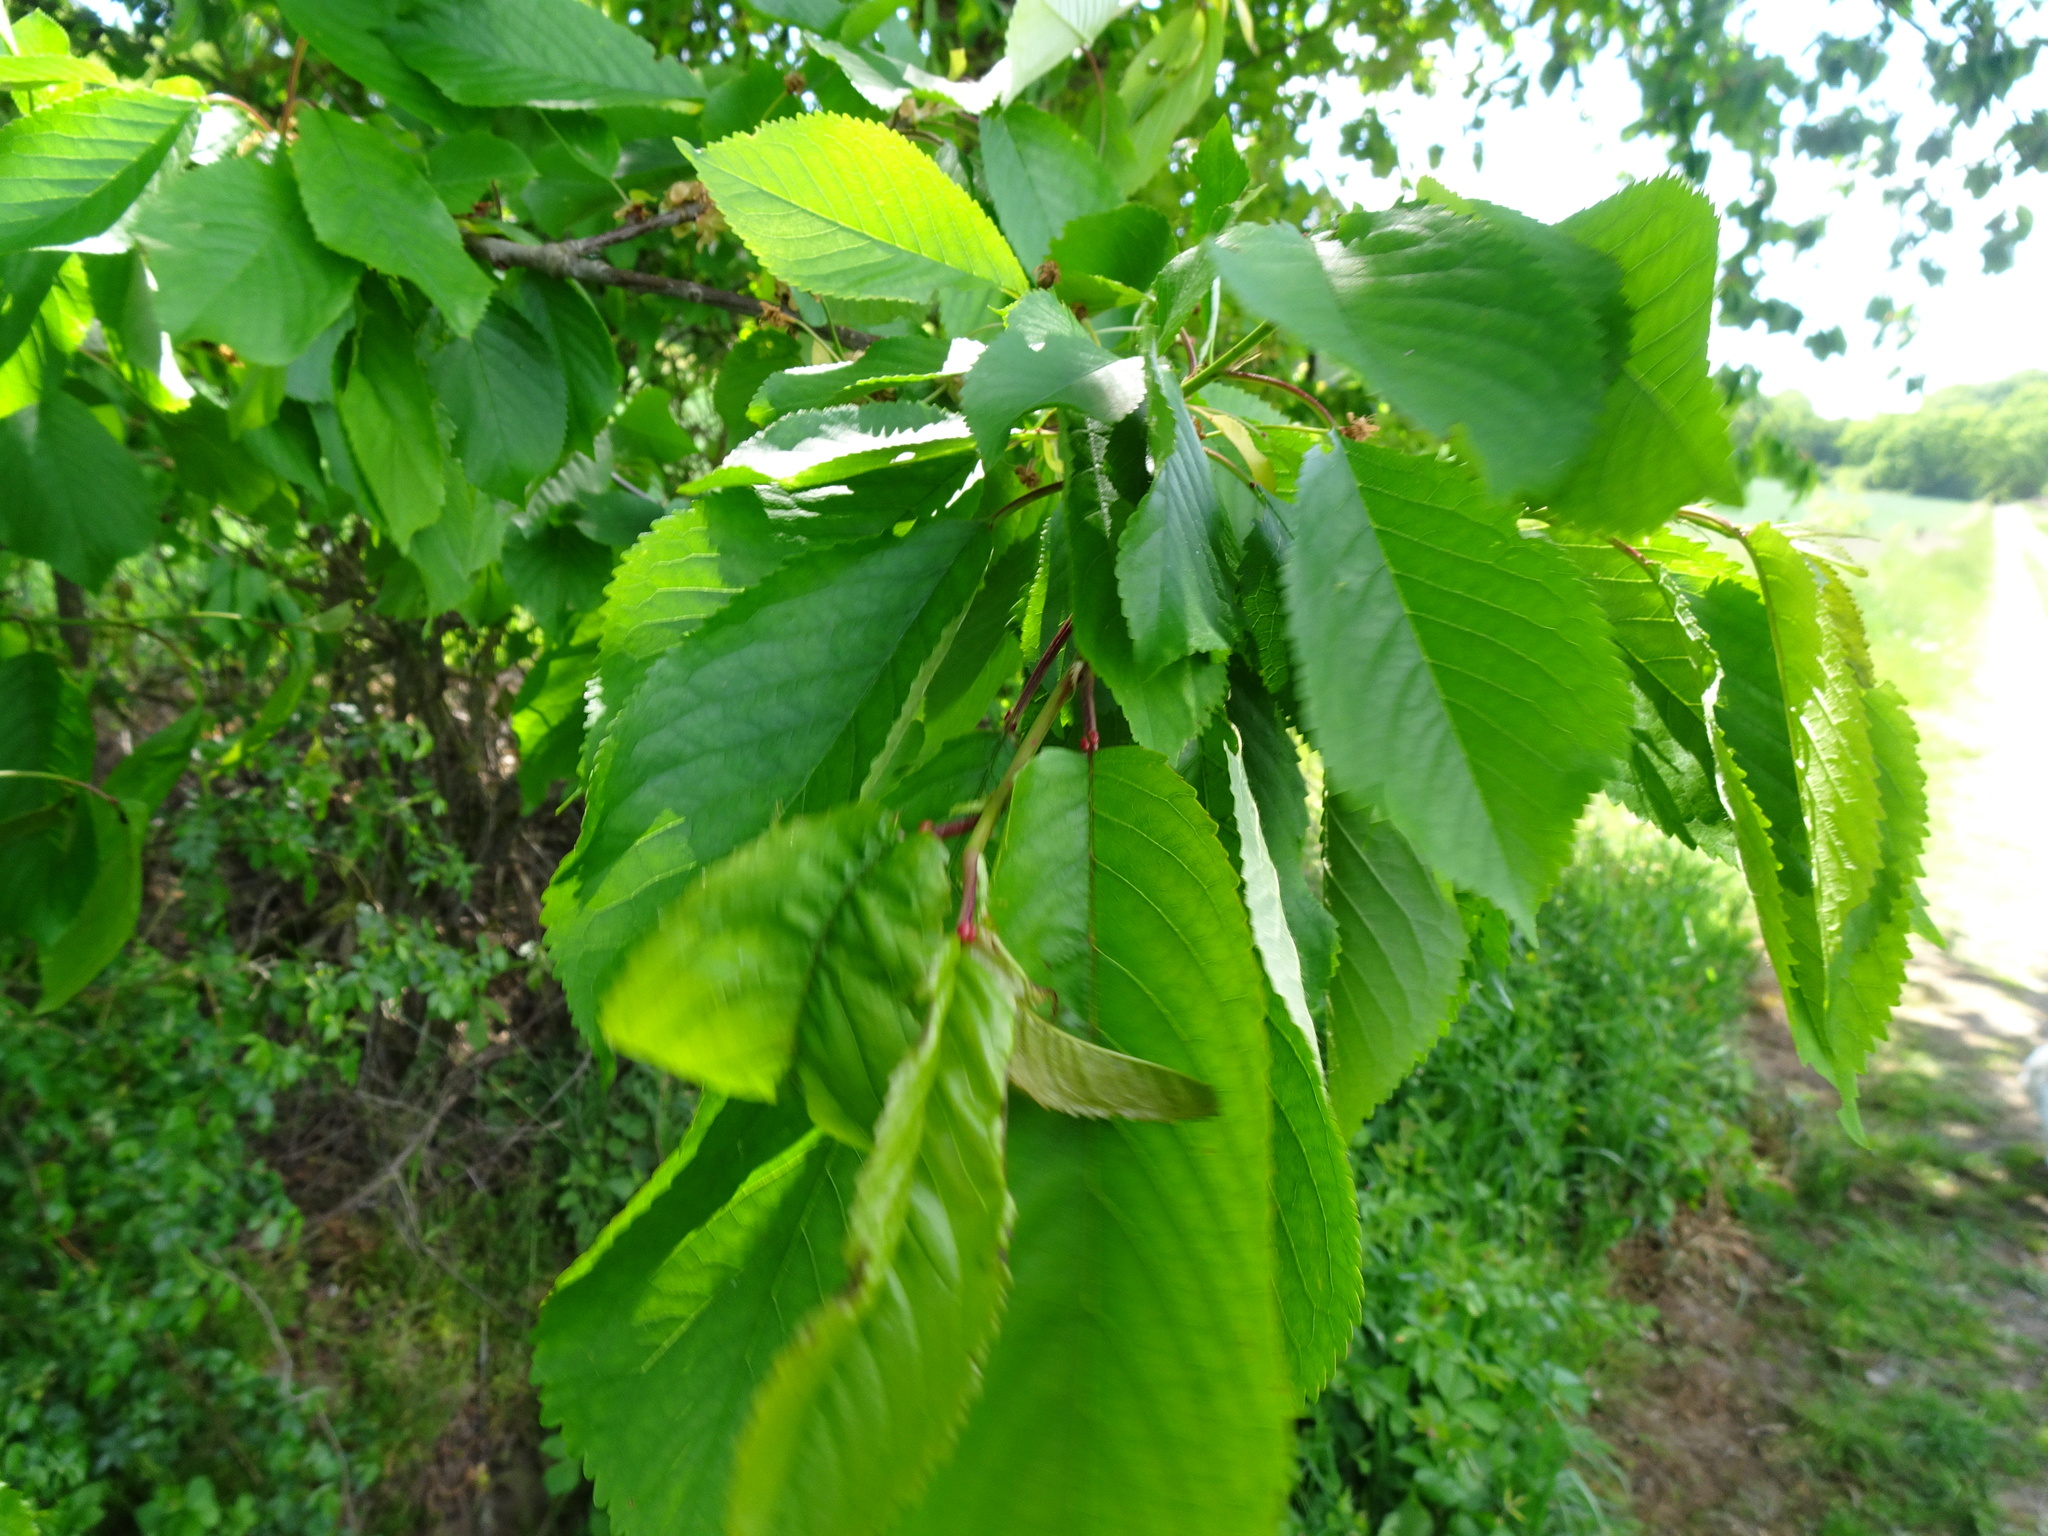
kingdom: Plantae
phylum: Tracheophyta
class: Magnoliopsida
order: Rosales
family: Rosaceae
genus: Prunus
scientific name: Prunus avium
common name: Sweet cherry
